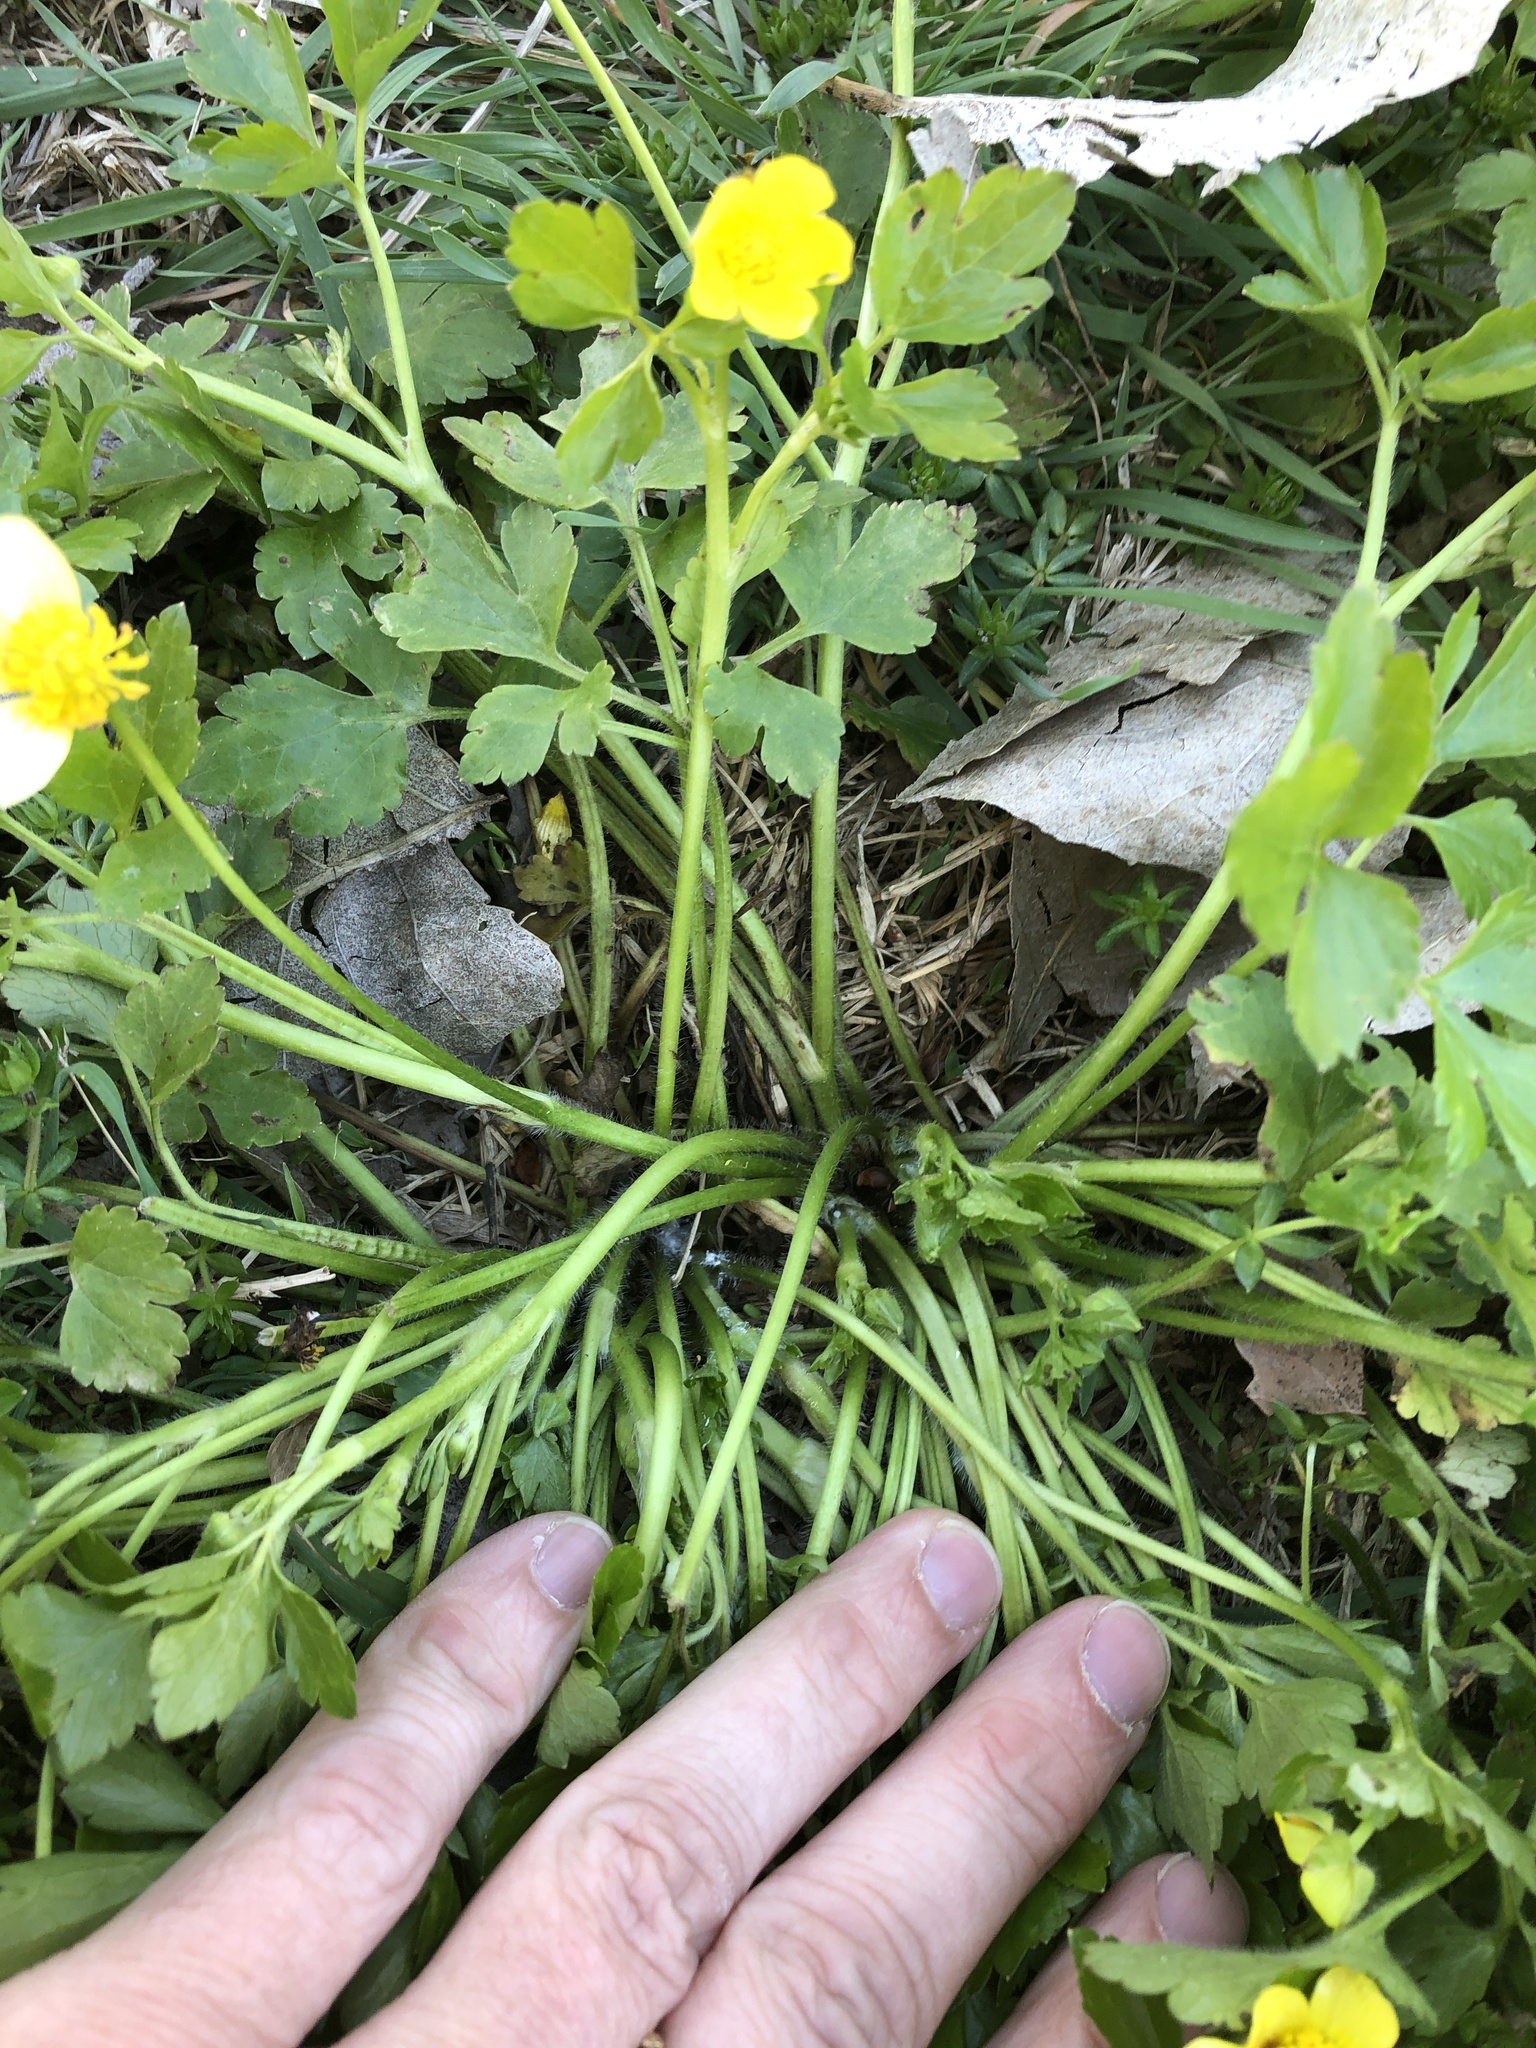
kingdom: Plantae
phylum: Tracheophyta
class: Magnoliopsida
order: Ranunculales
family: Ranunculaceae
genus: Ranunculus
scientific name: Ranunculus fascicularis
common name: Early buttercup
